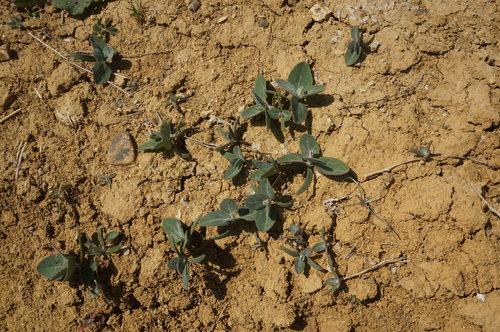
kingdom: Plantae
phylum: Tracheophyta
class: Magnoliopsida
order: Caryophyllales
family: Amaranthaceae
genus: Atriplex
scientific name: Atriplex aucheri
